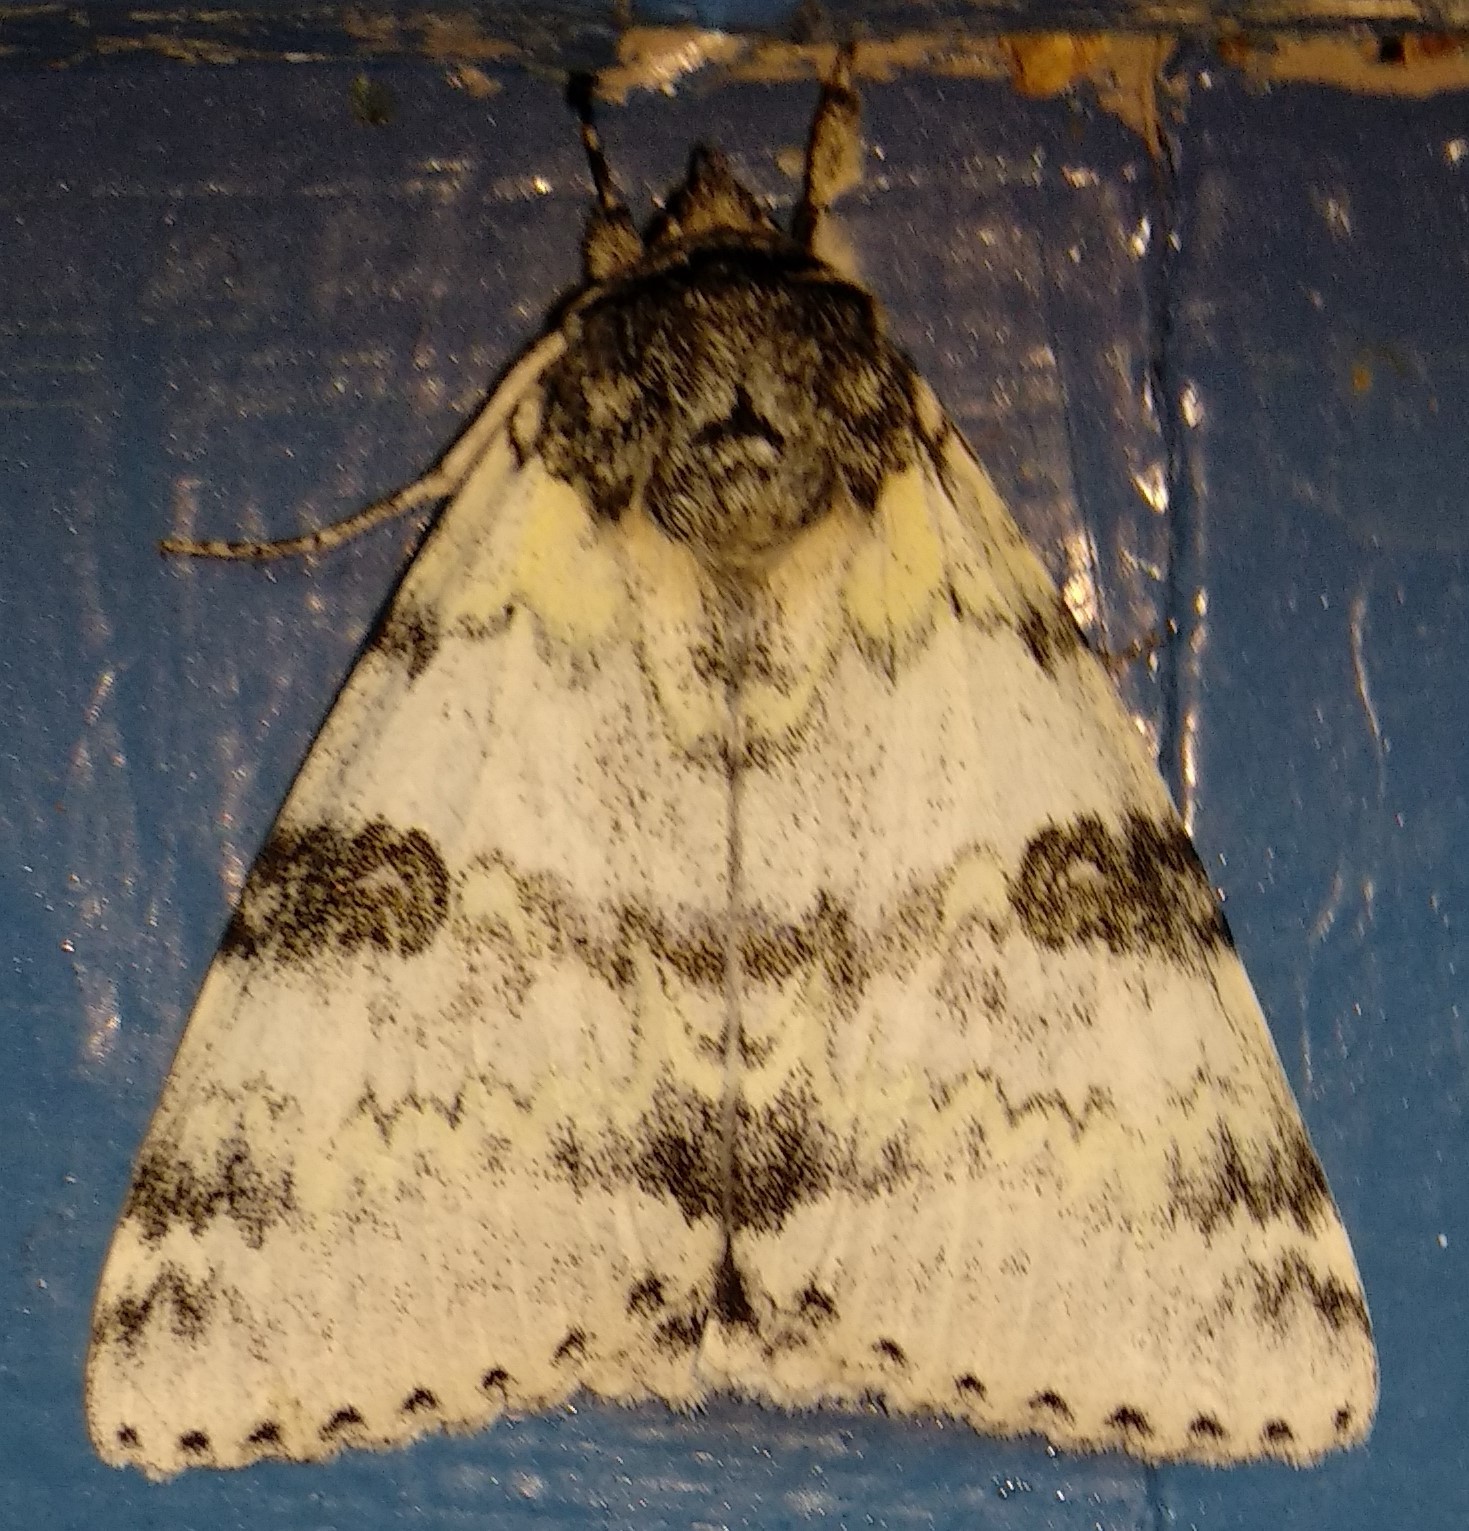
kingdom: Animalia
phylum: Arthropoda
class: Insecta
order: Lepidoptera
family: Erebidae
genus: Catocala
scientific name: Catocala relicta
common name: White underwing
